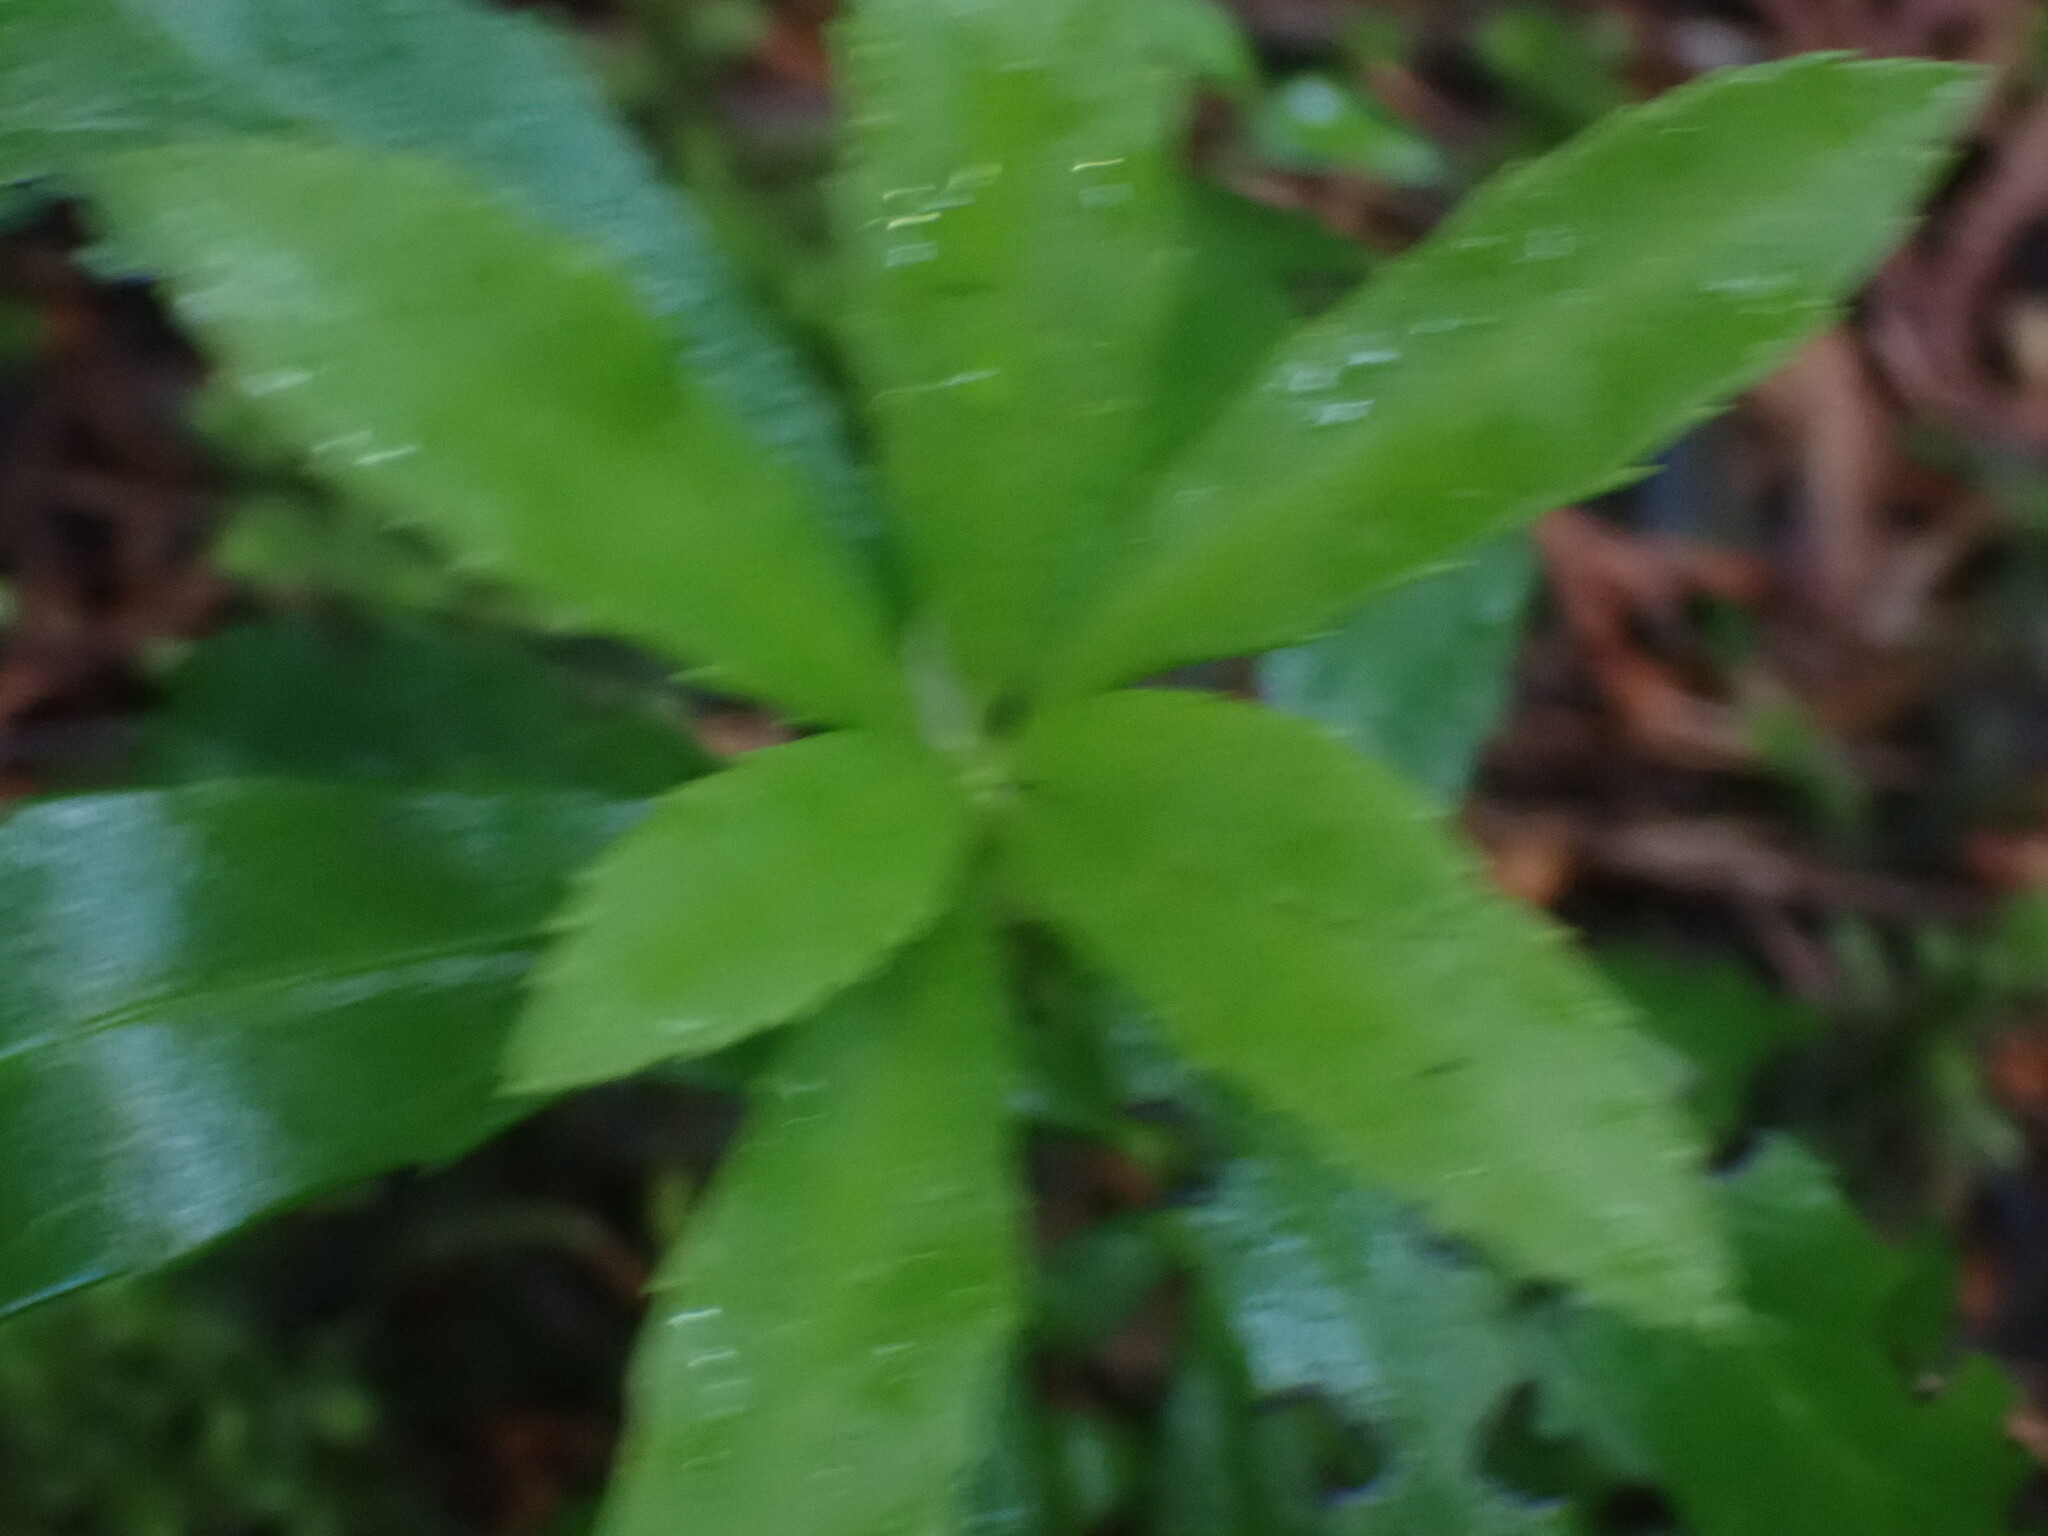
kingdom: Plantae
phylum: Tracheophyta
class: Magnoliopsida
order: Ericales
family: Ericaceae
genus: Chimaphila
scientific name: Chimaphila umbellata
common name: Pipsissewa
